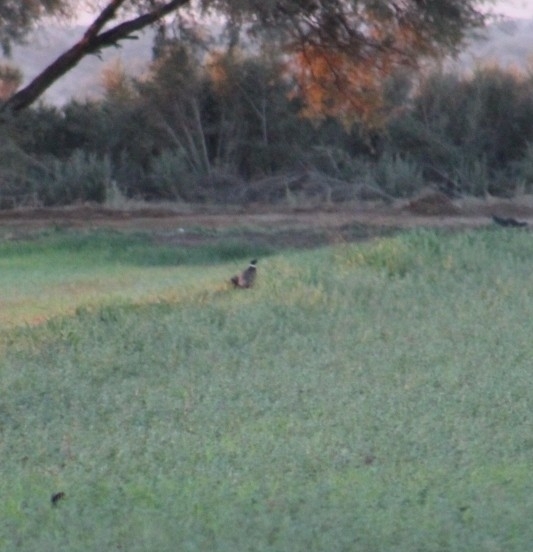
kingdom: Animalia
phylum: Chordata
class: Aves
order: Galliformes
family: Phasianidae
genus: Phasianus
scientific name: Phasianus colchicus
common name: Common pheasant
